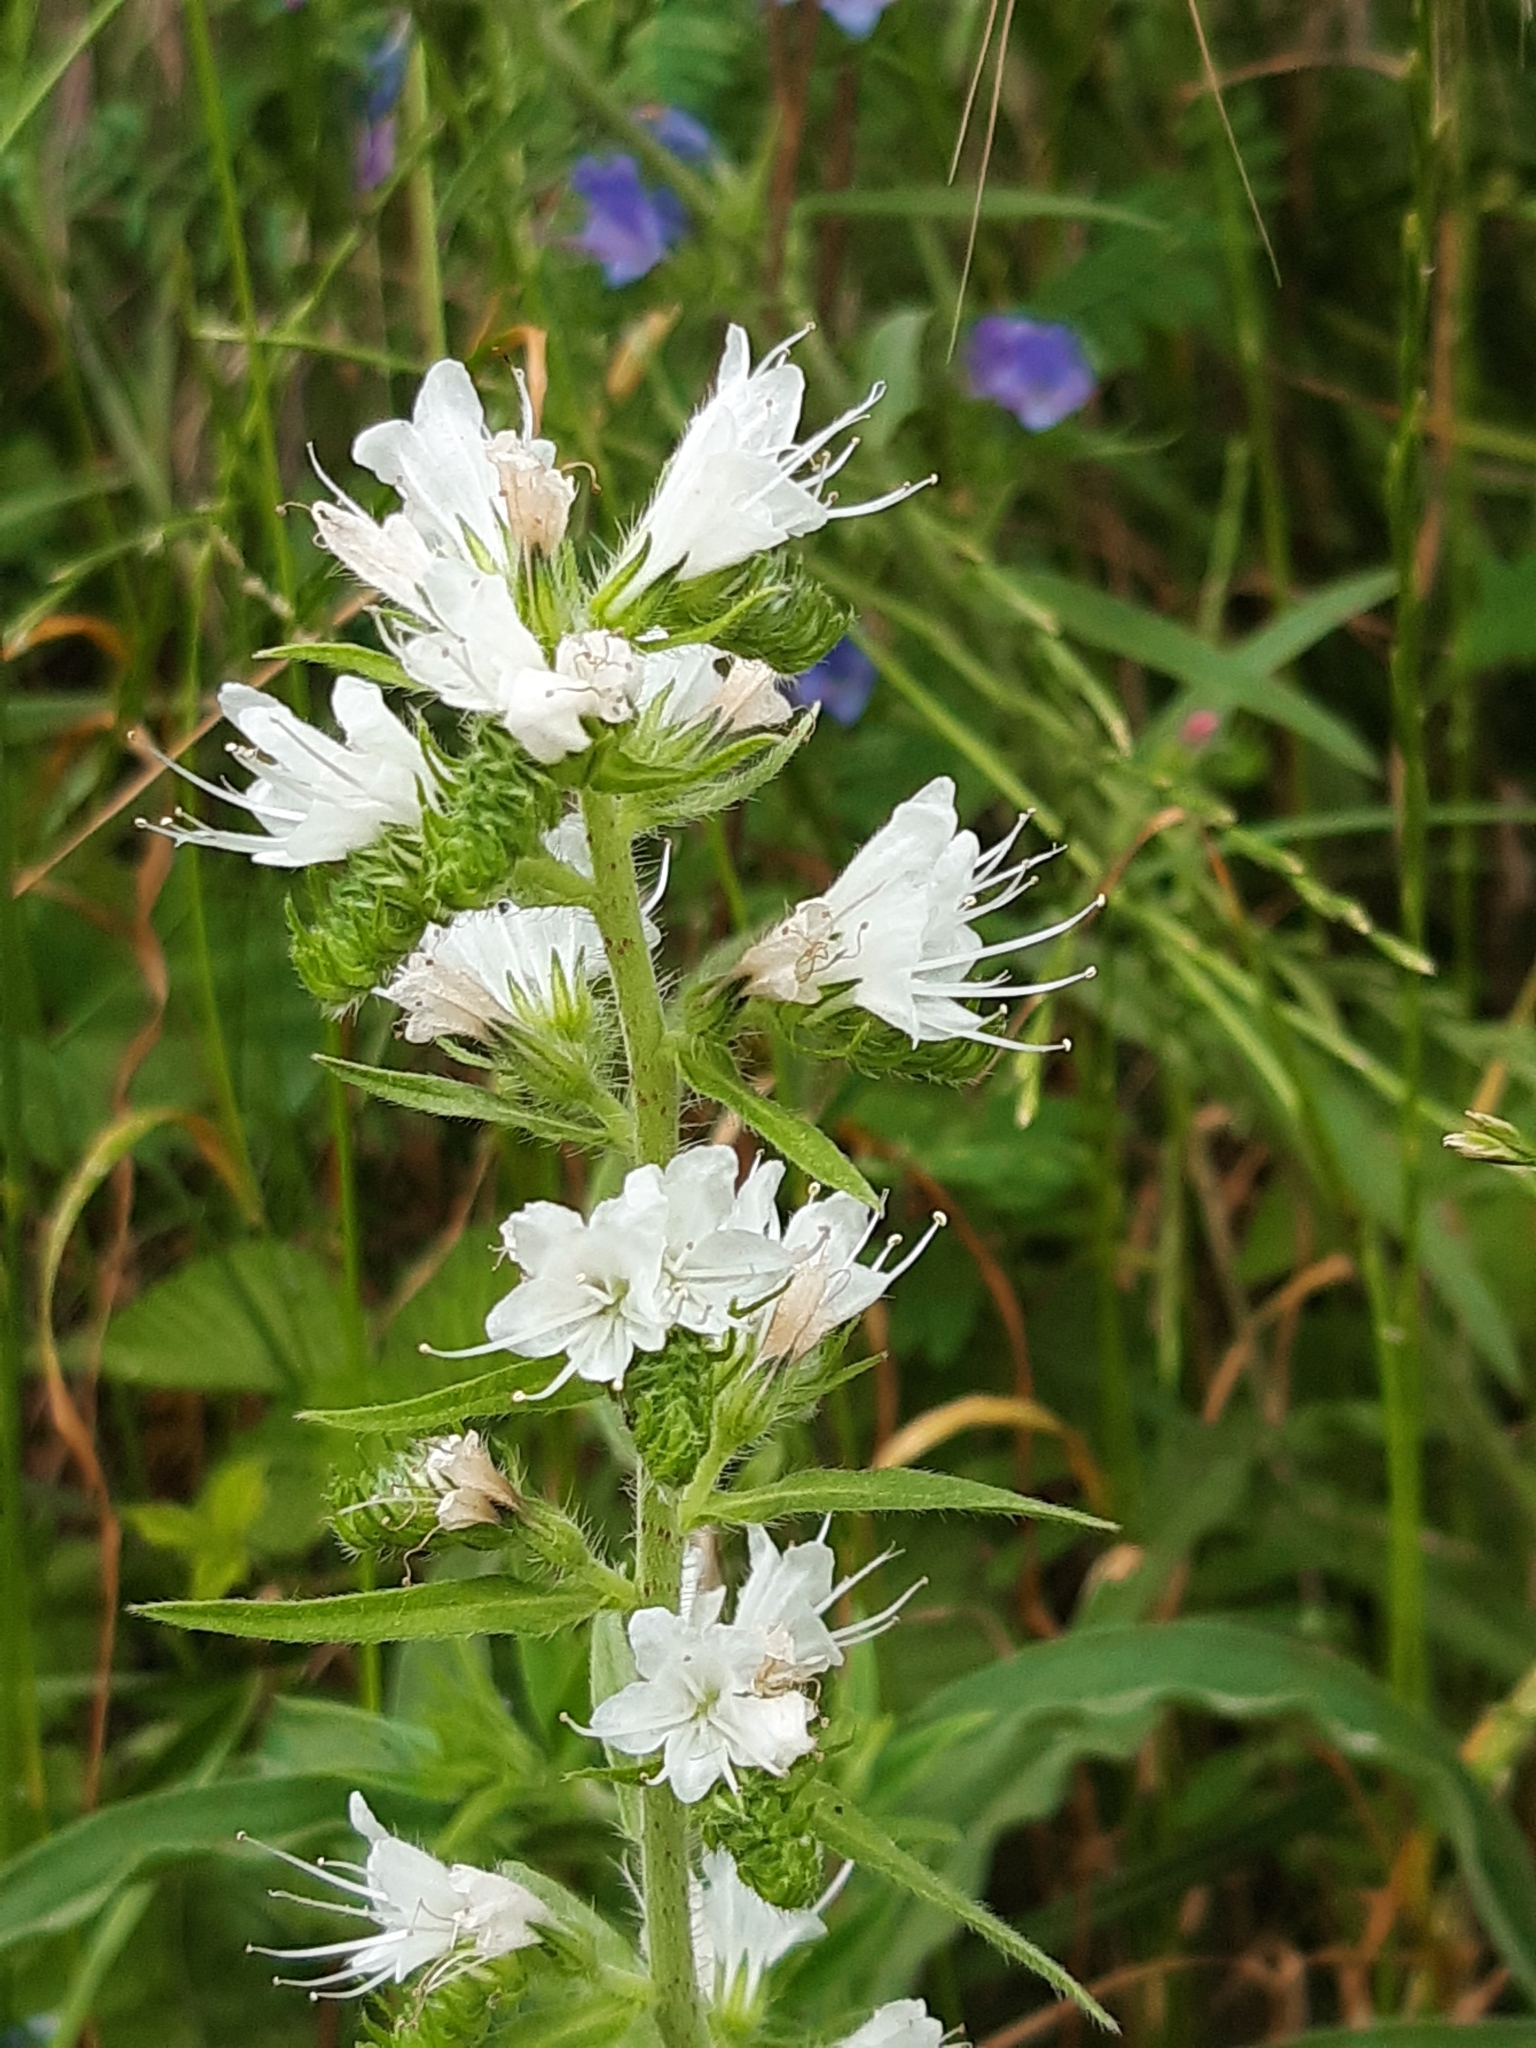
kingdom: Plantae
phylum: Tracheophyta
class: Magnoliopsida
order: Boraginales
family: Boraginaceae
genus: Echium
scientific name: Echium vulgare
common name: Common viper's bugloss
